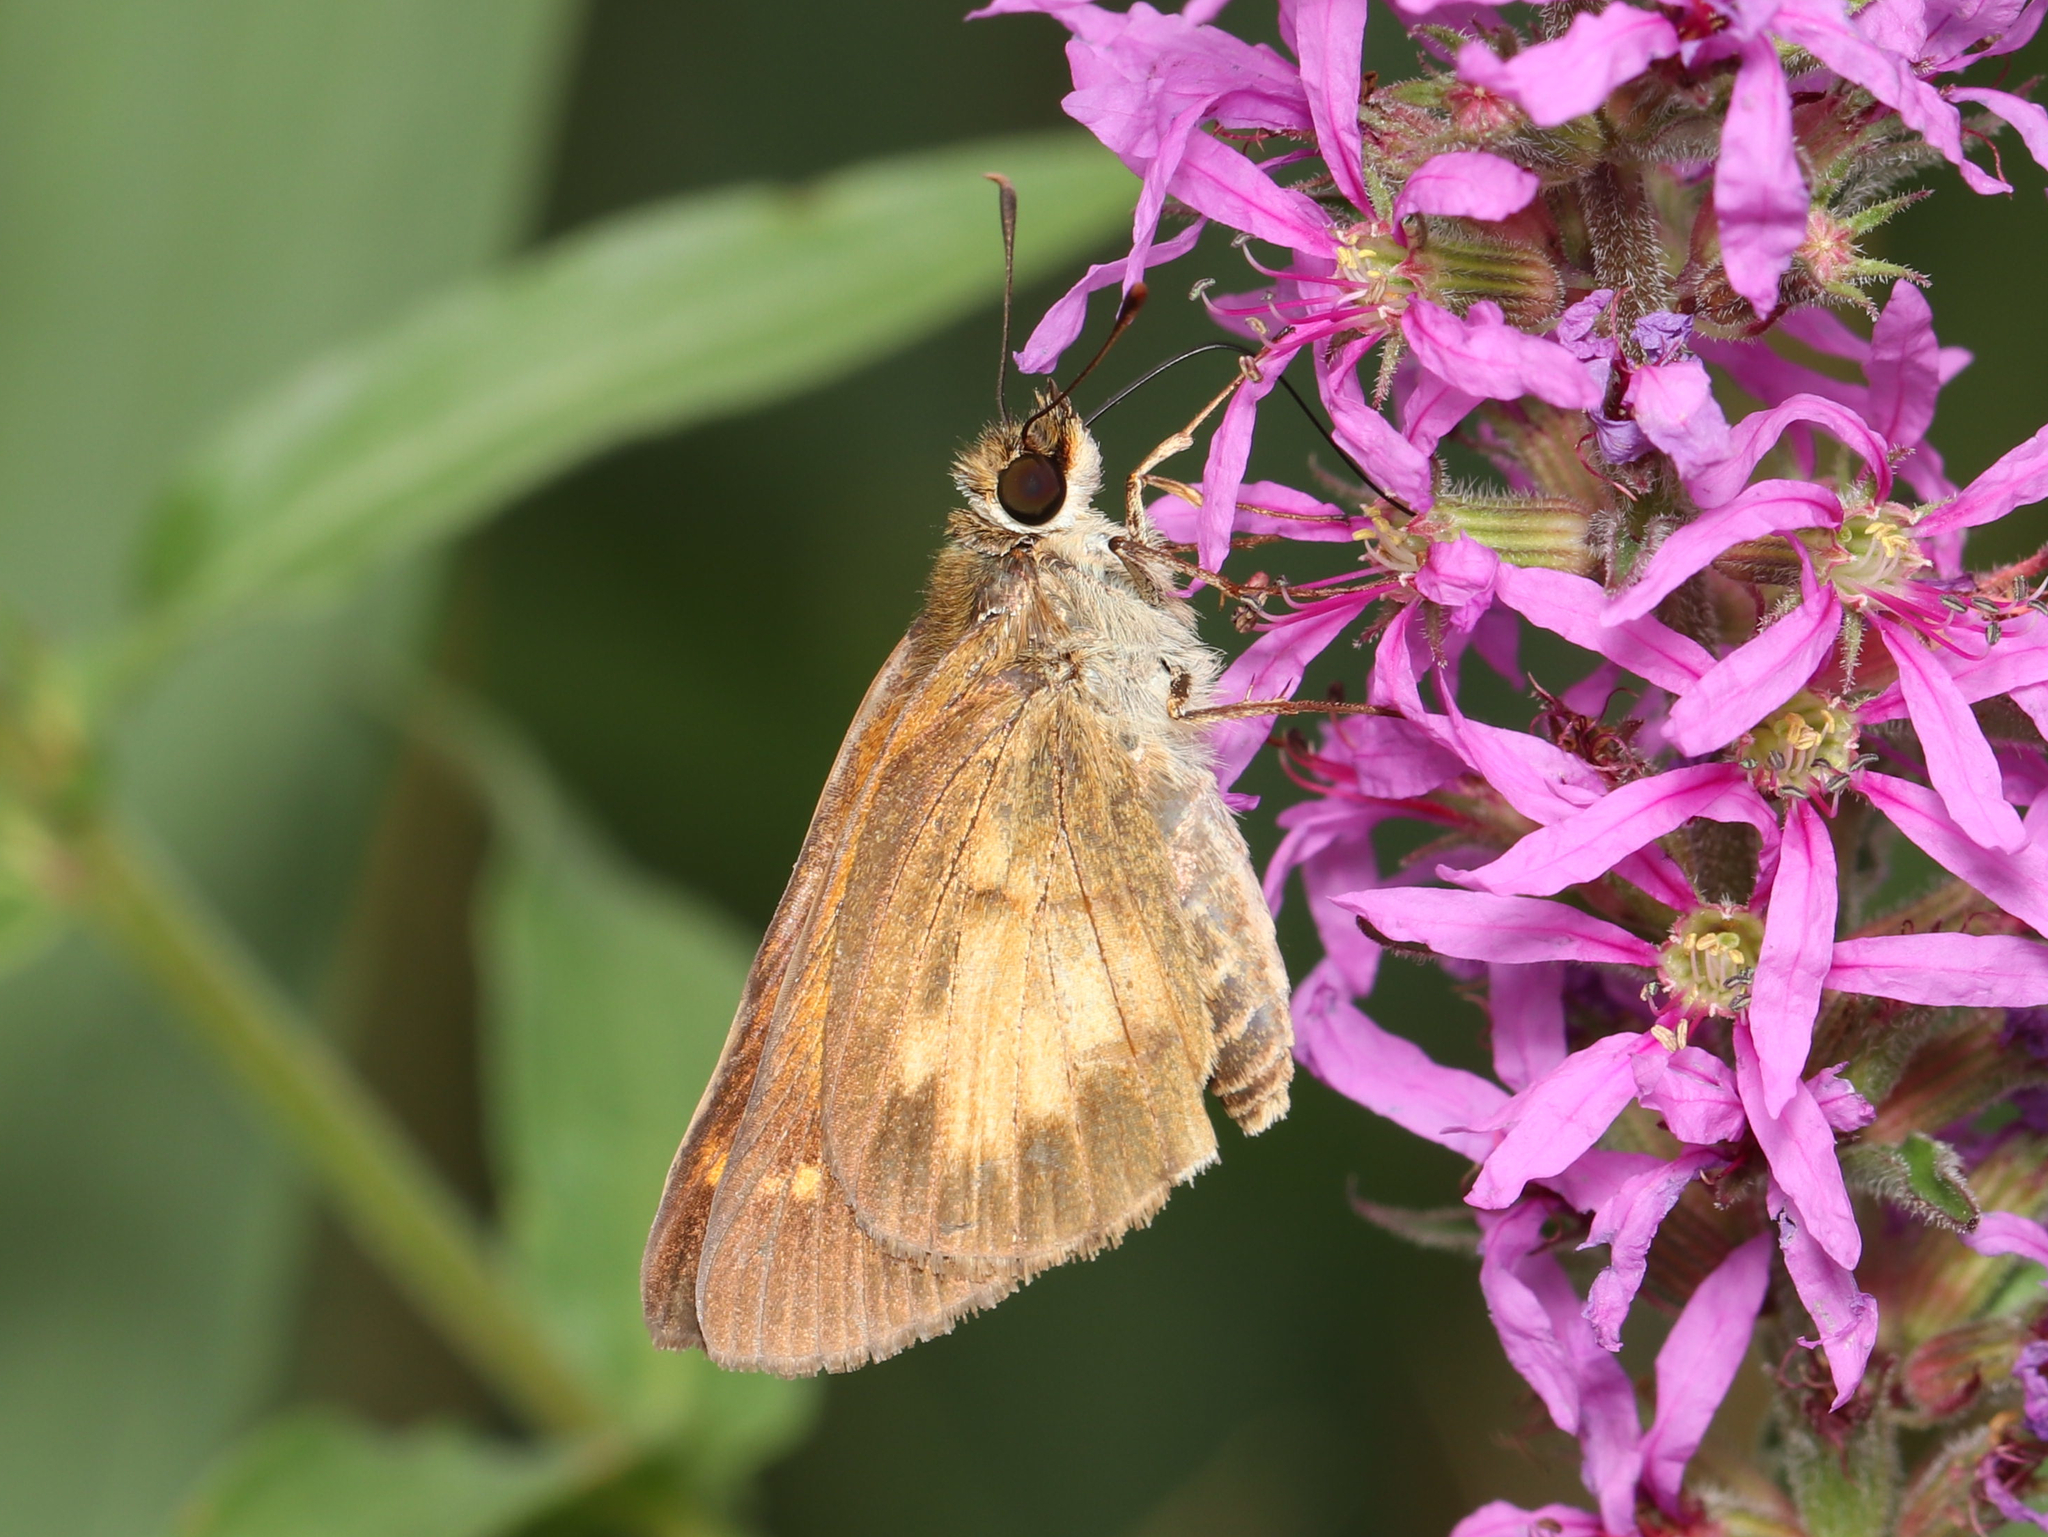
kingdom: Animalia
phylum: Arthropoda
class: Insecta
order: Lepidoptera
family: Hesperiidae
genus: Poanes
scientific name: Poanes viator
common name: Broad-winged skipper
